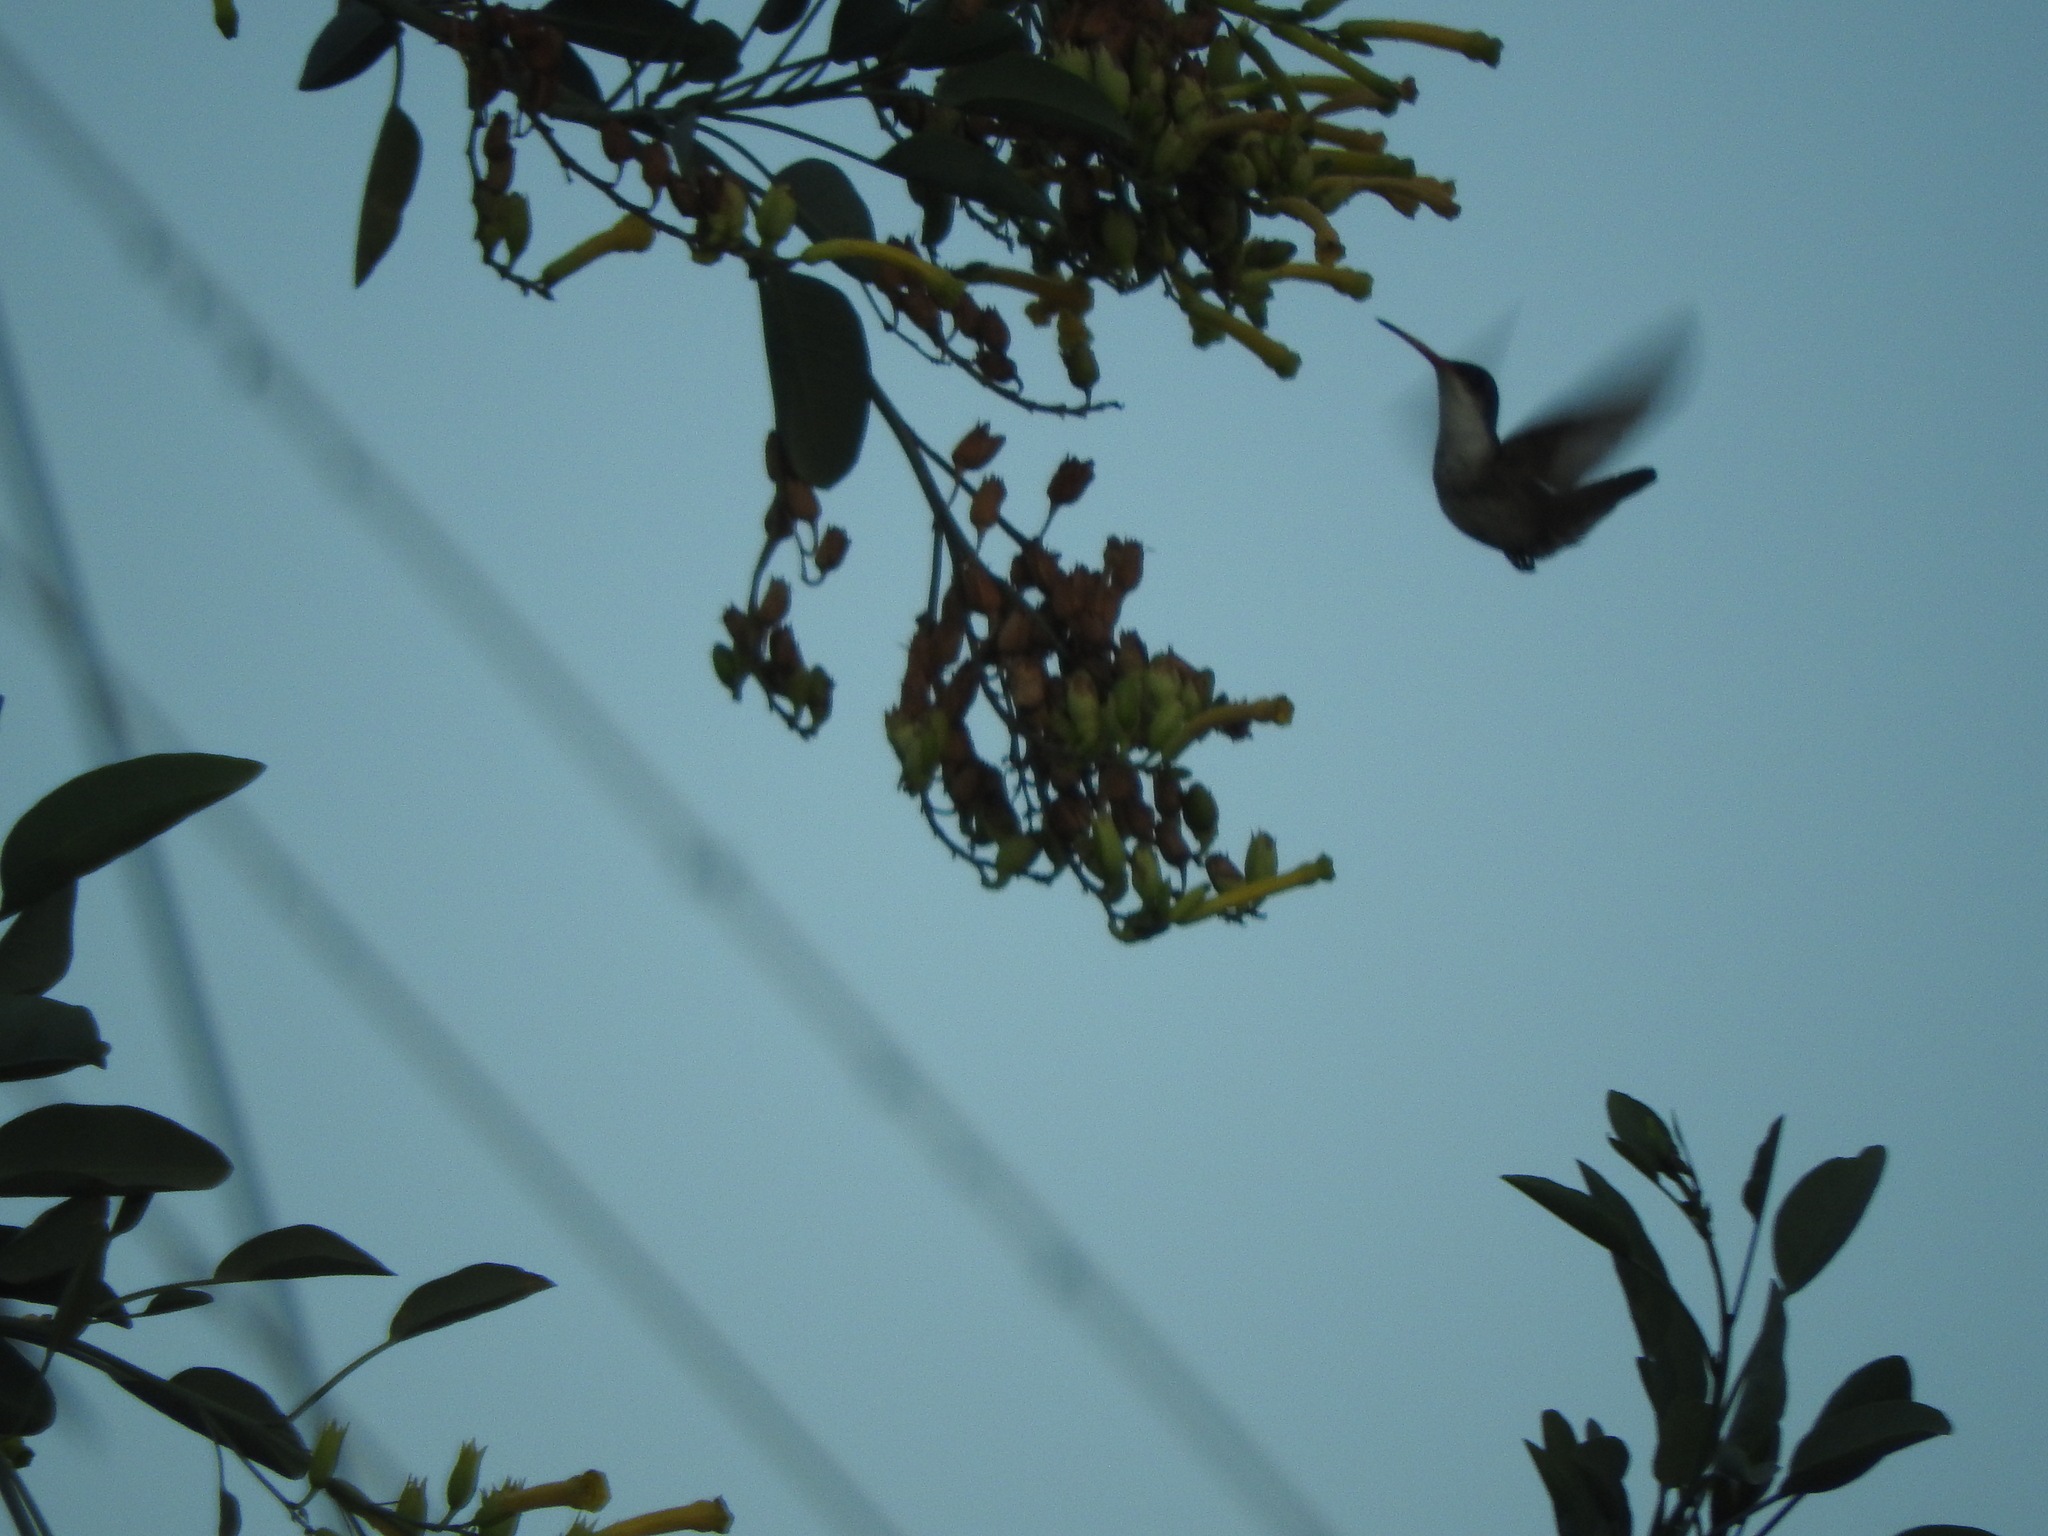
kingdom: Animalia
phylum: Chordata
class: Aves
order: Apodiformes
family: Trochilidae
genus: Leucolia
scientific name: Leucolia violiceps
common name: Violet-crowned hummingbird
